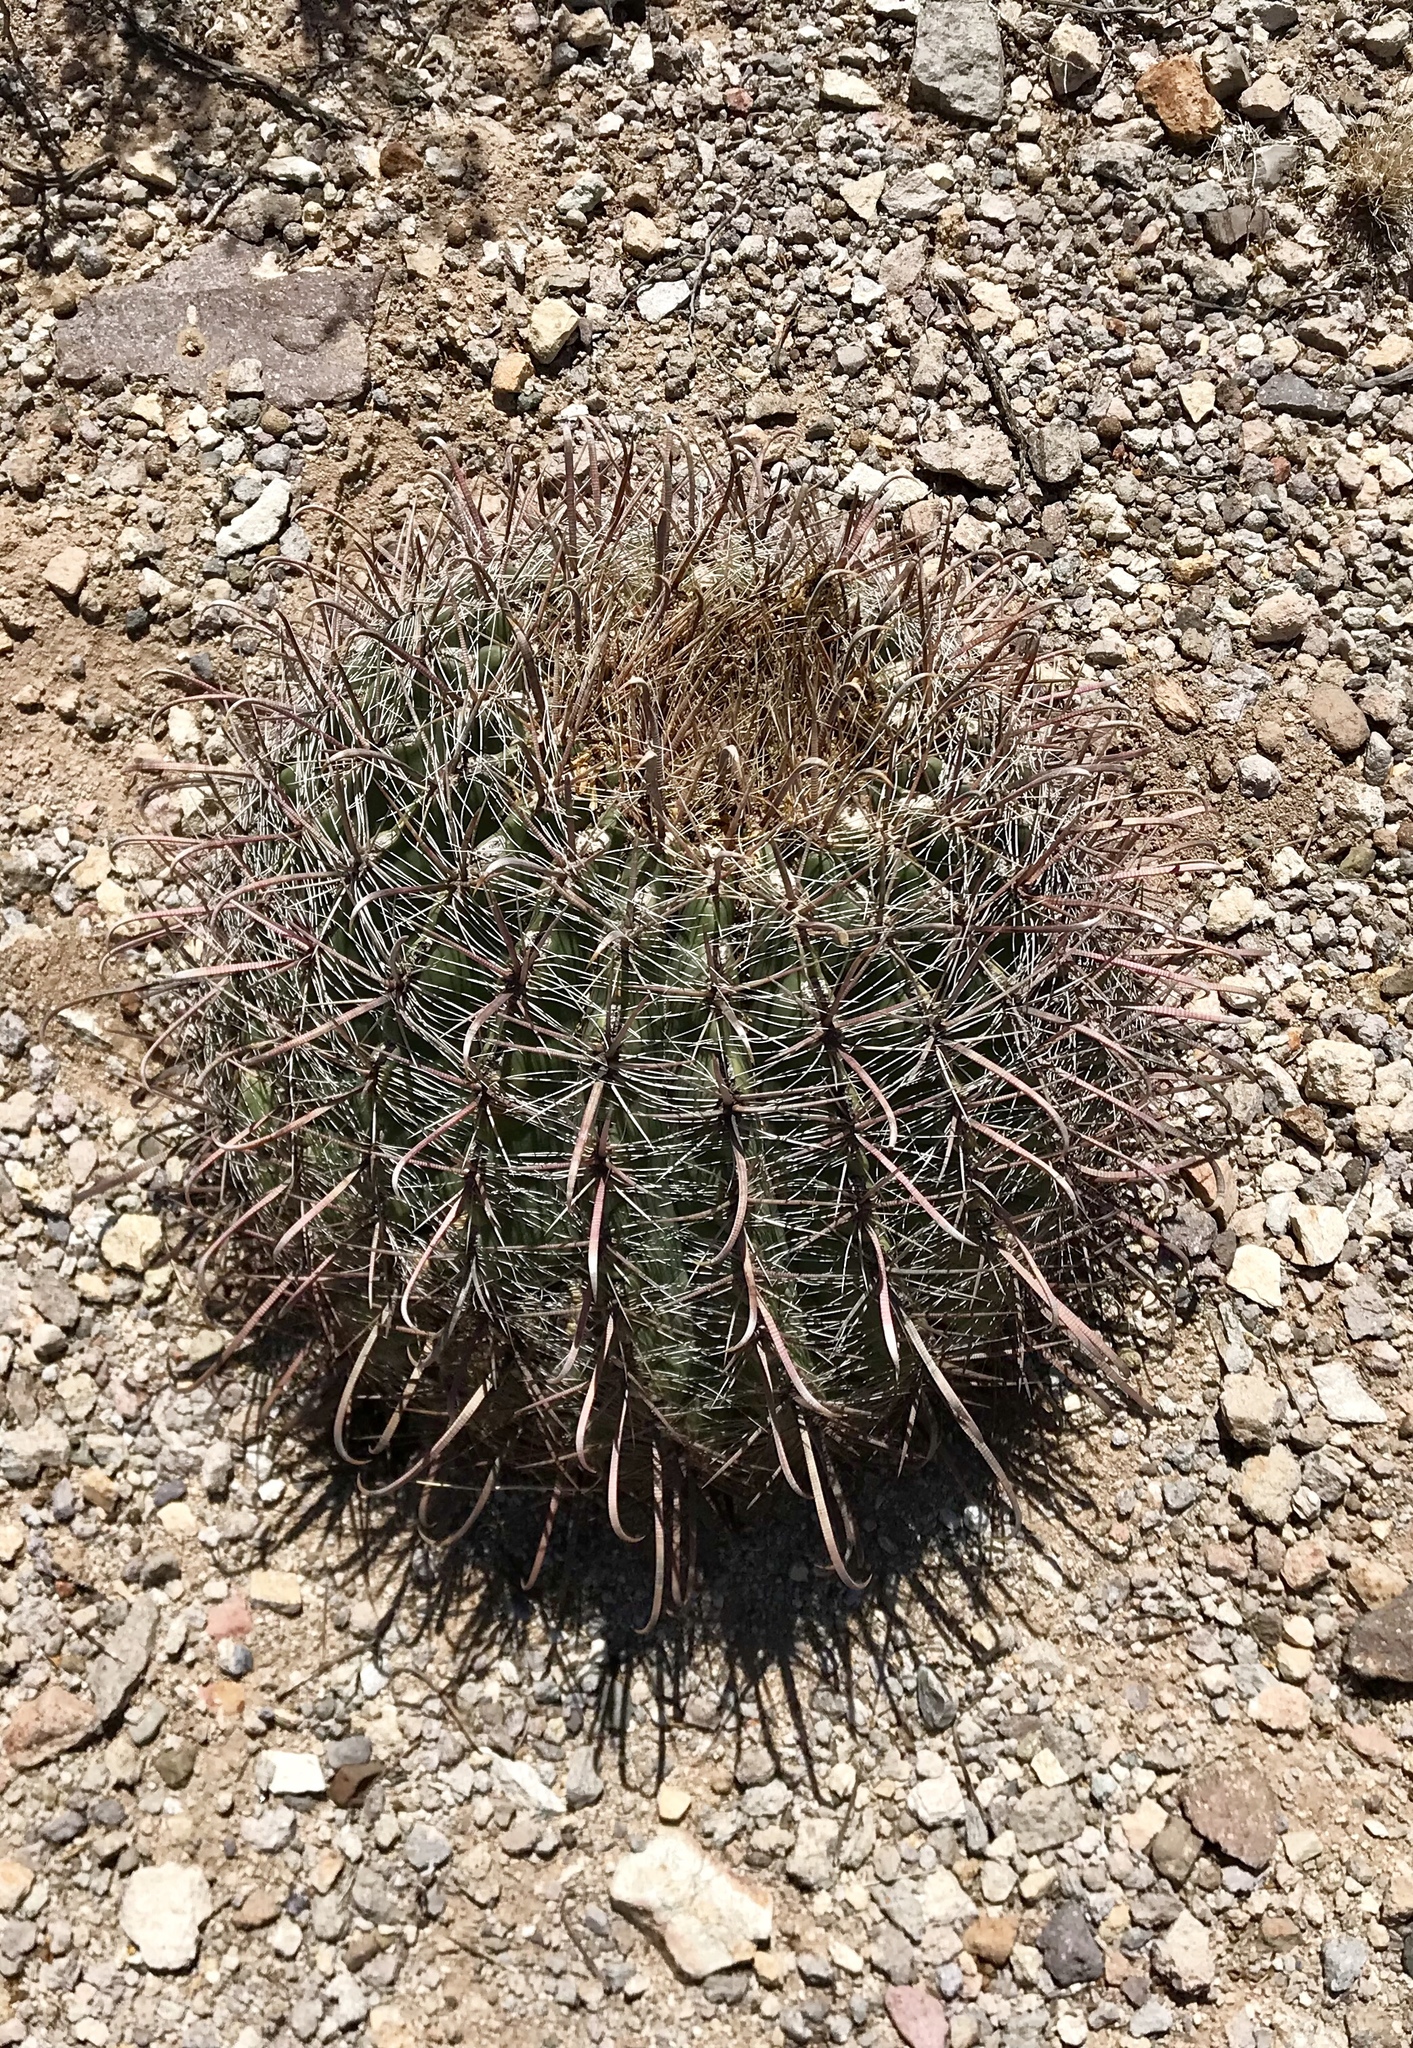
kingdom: Plantae
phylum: Tracheophyta
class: Magnoliopsida
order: Caryophyllales
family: Cactaceae
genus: Ferocactus
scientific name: Ferocactus wislizeni
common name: Candy barrel cactus
